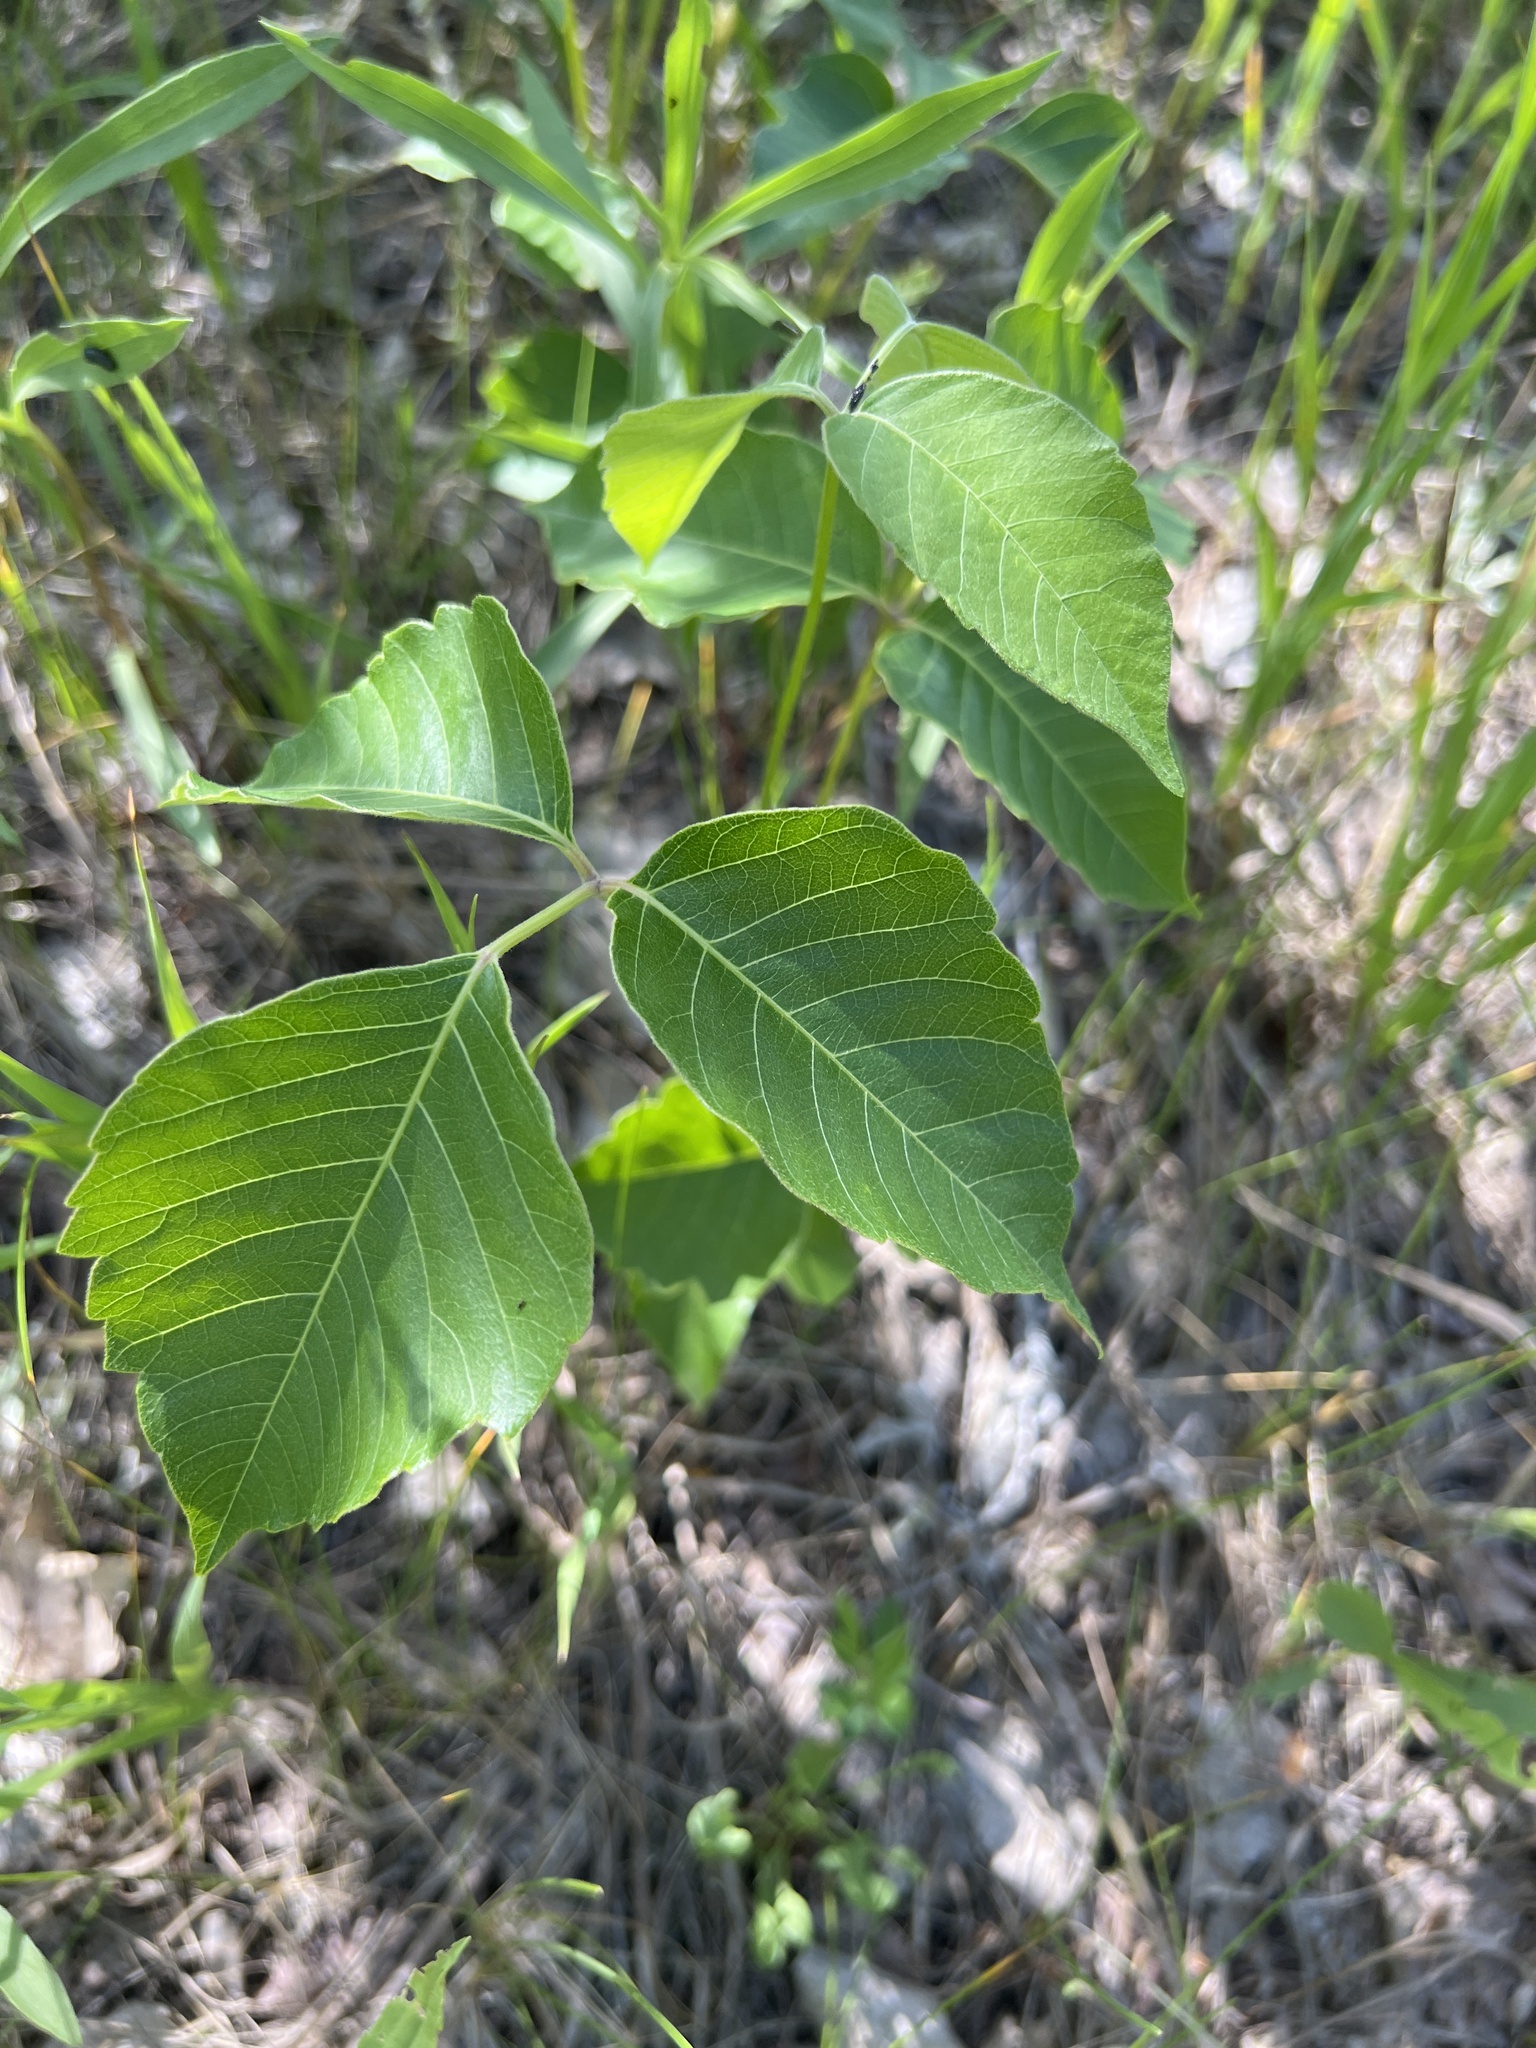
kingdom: Plantae
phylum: Tracheophyta
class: Magnoliopsida
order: Sapindales
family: Anacardiaceae
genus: Toxicodendron
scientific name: Toxicodendron rydbergii
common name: Rydberg's poison-ivy
